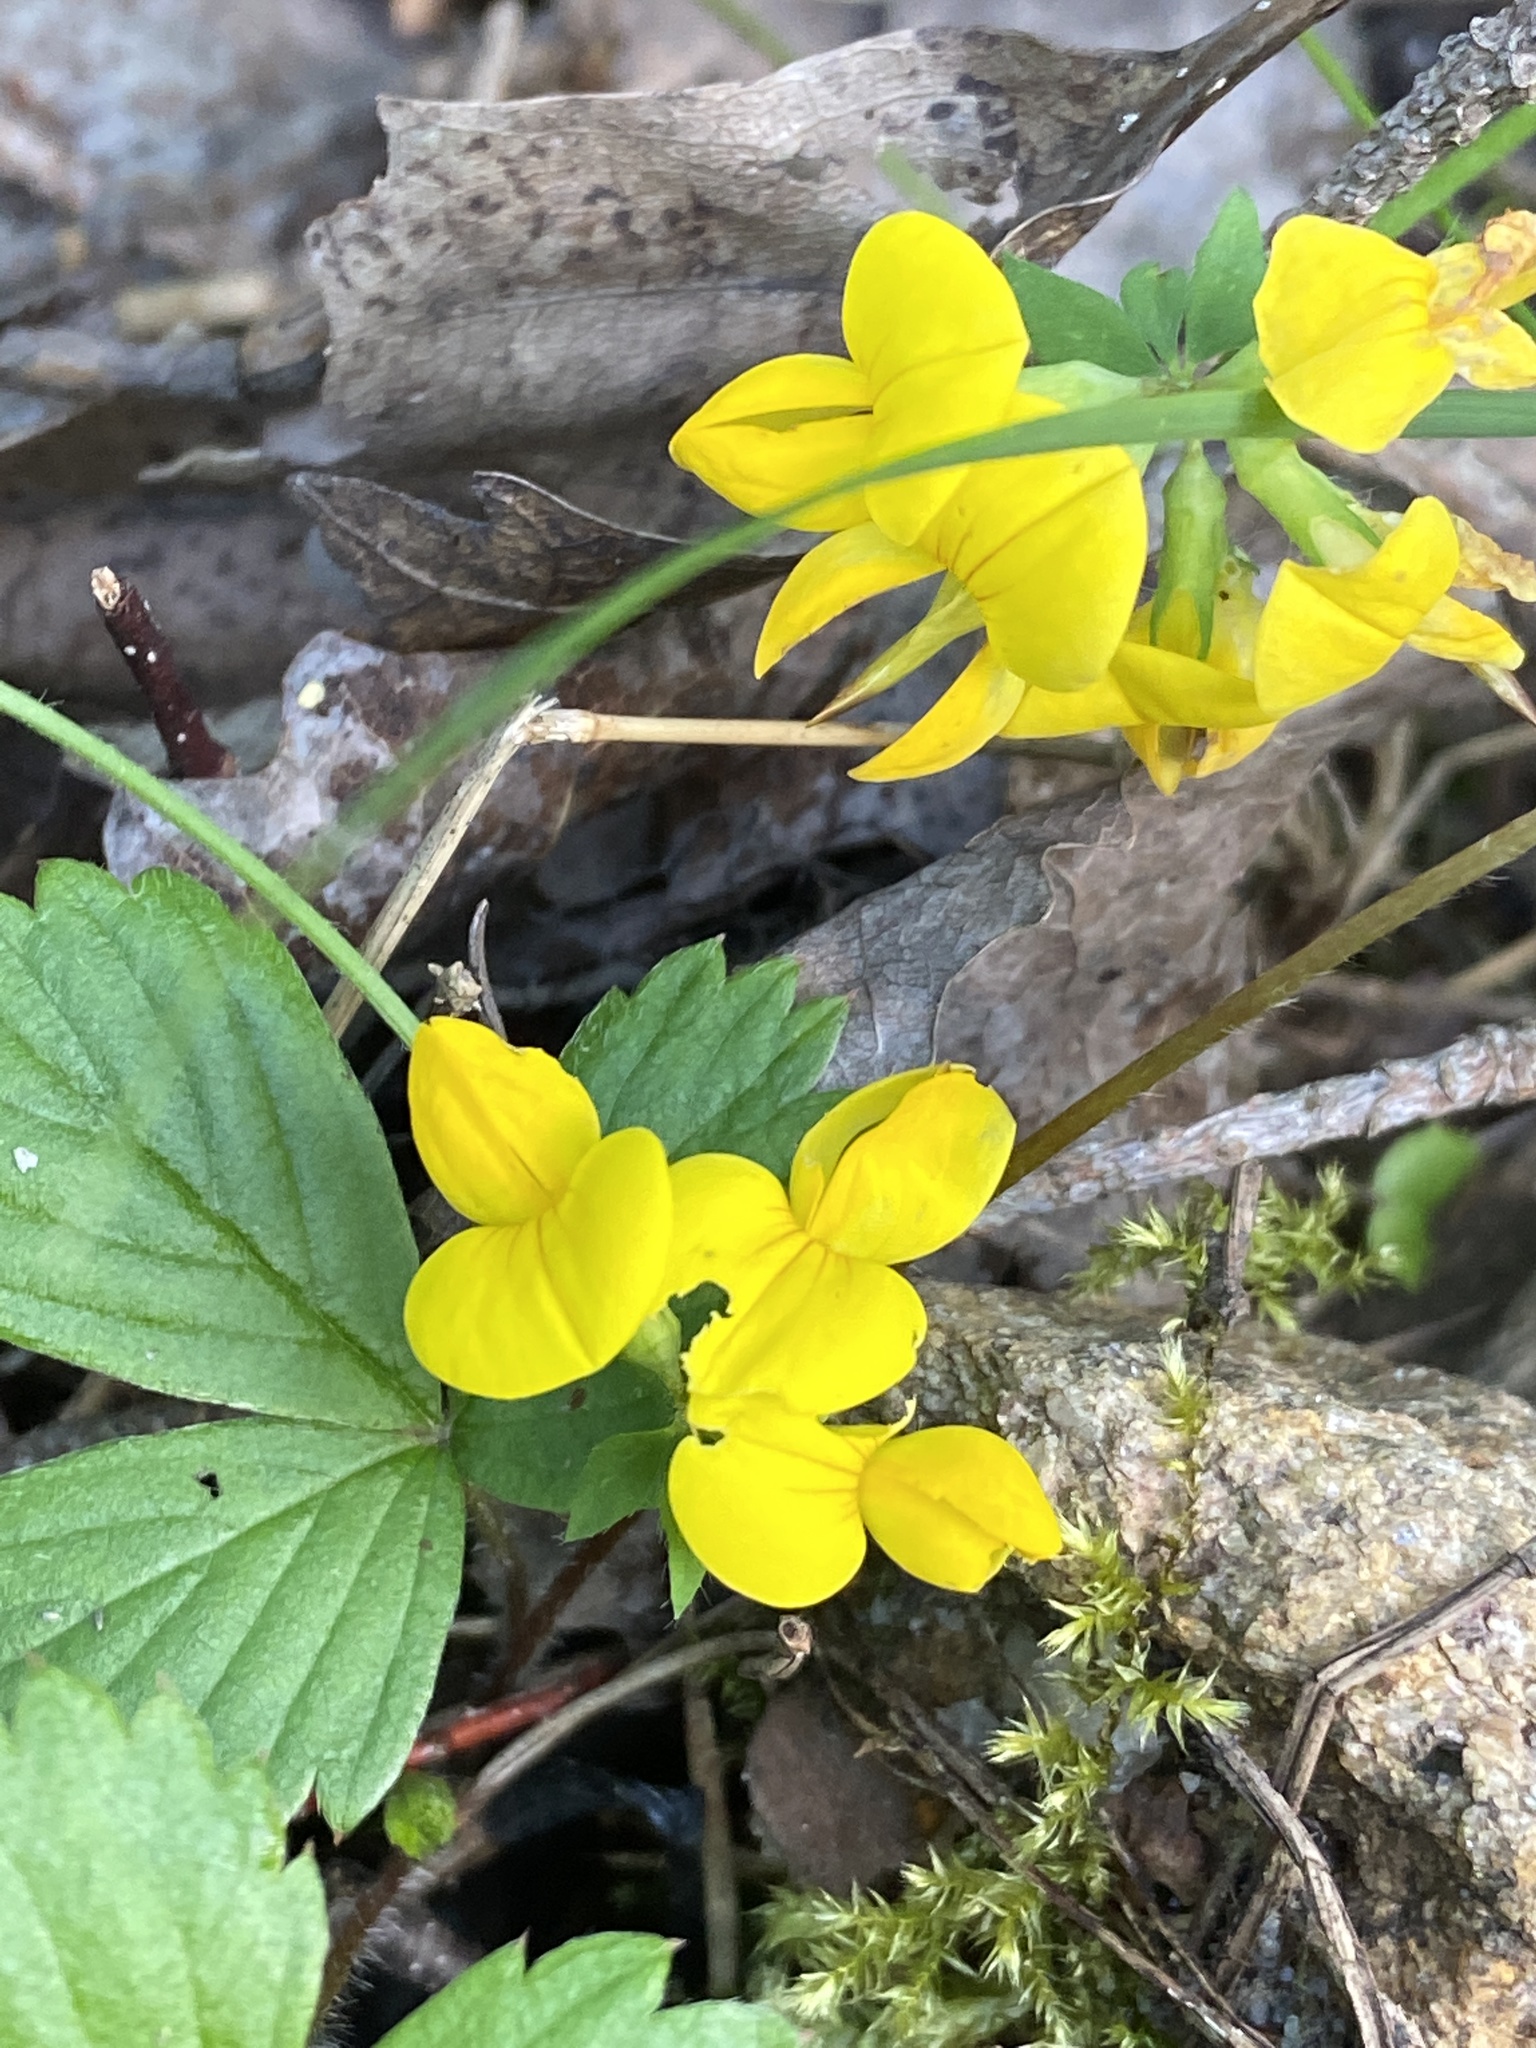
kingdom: Plantae
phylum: Tracheophyta
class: Magnoliopsida
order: Fabales
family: Fabaceae
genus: Lotus
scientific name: Lotus corniculatus
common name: Common bird's-foot-trefoil
